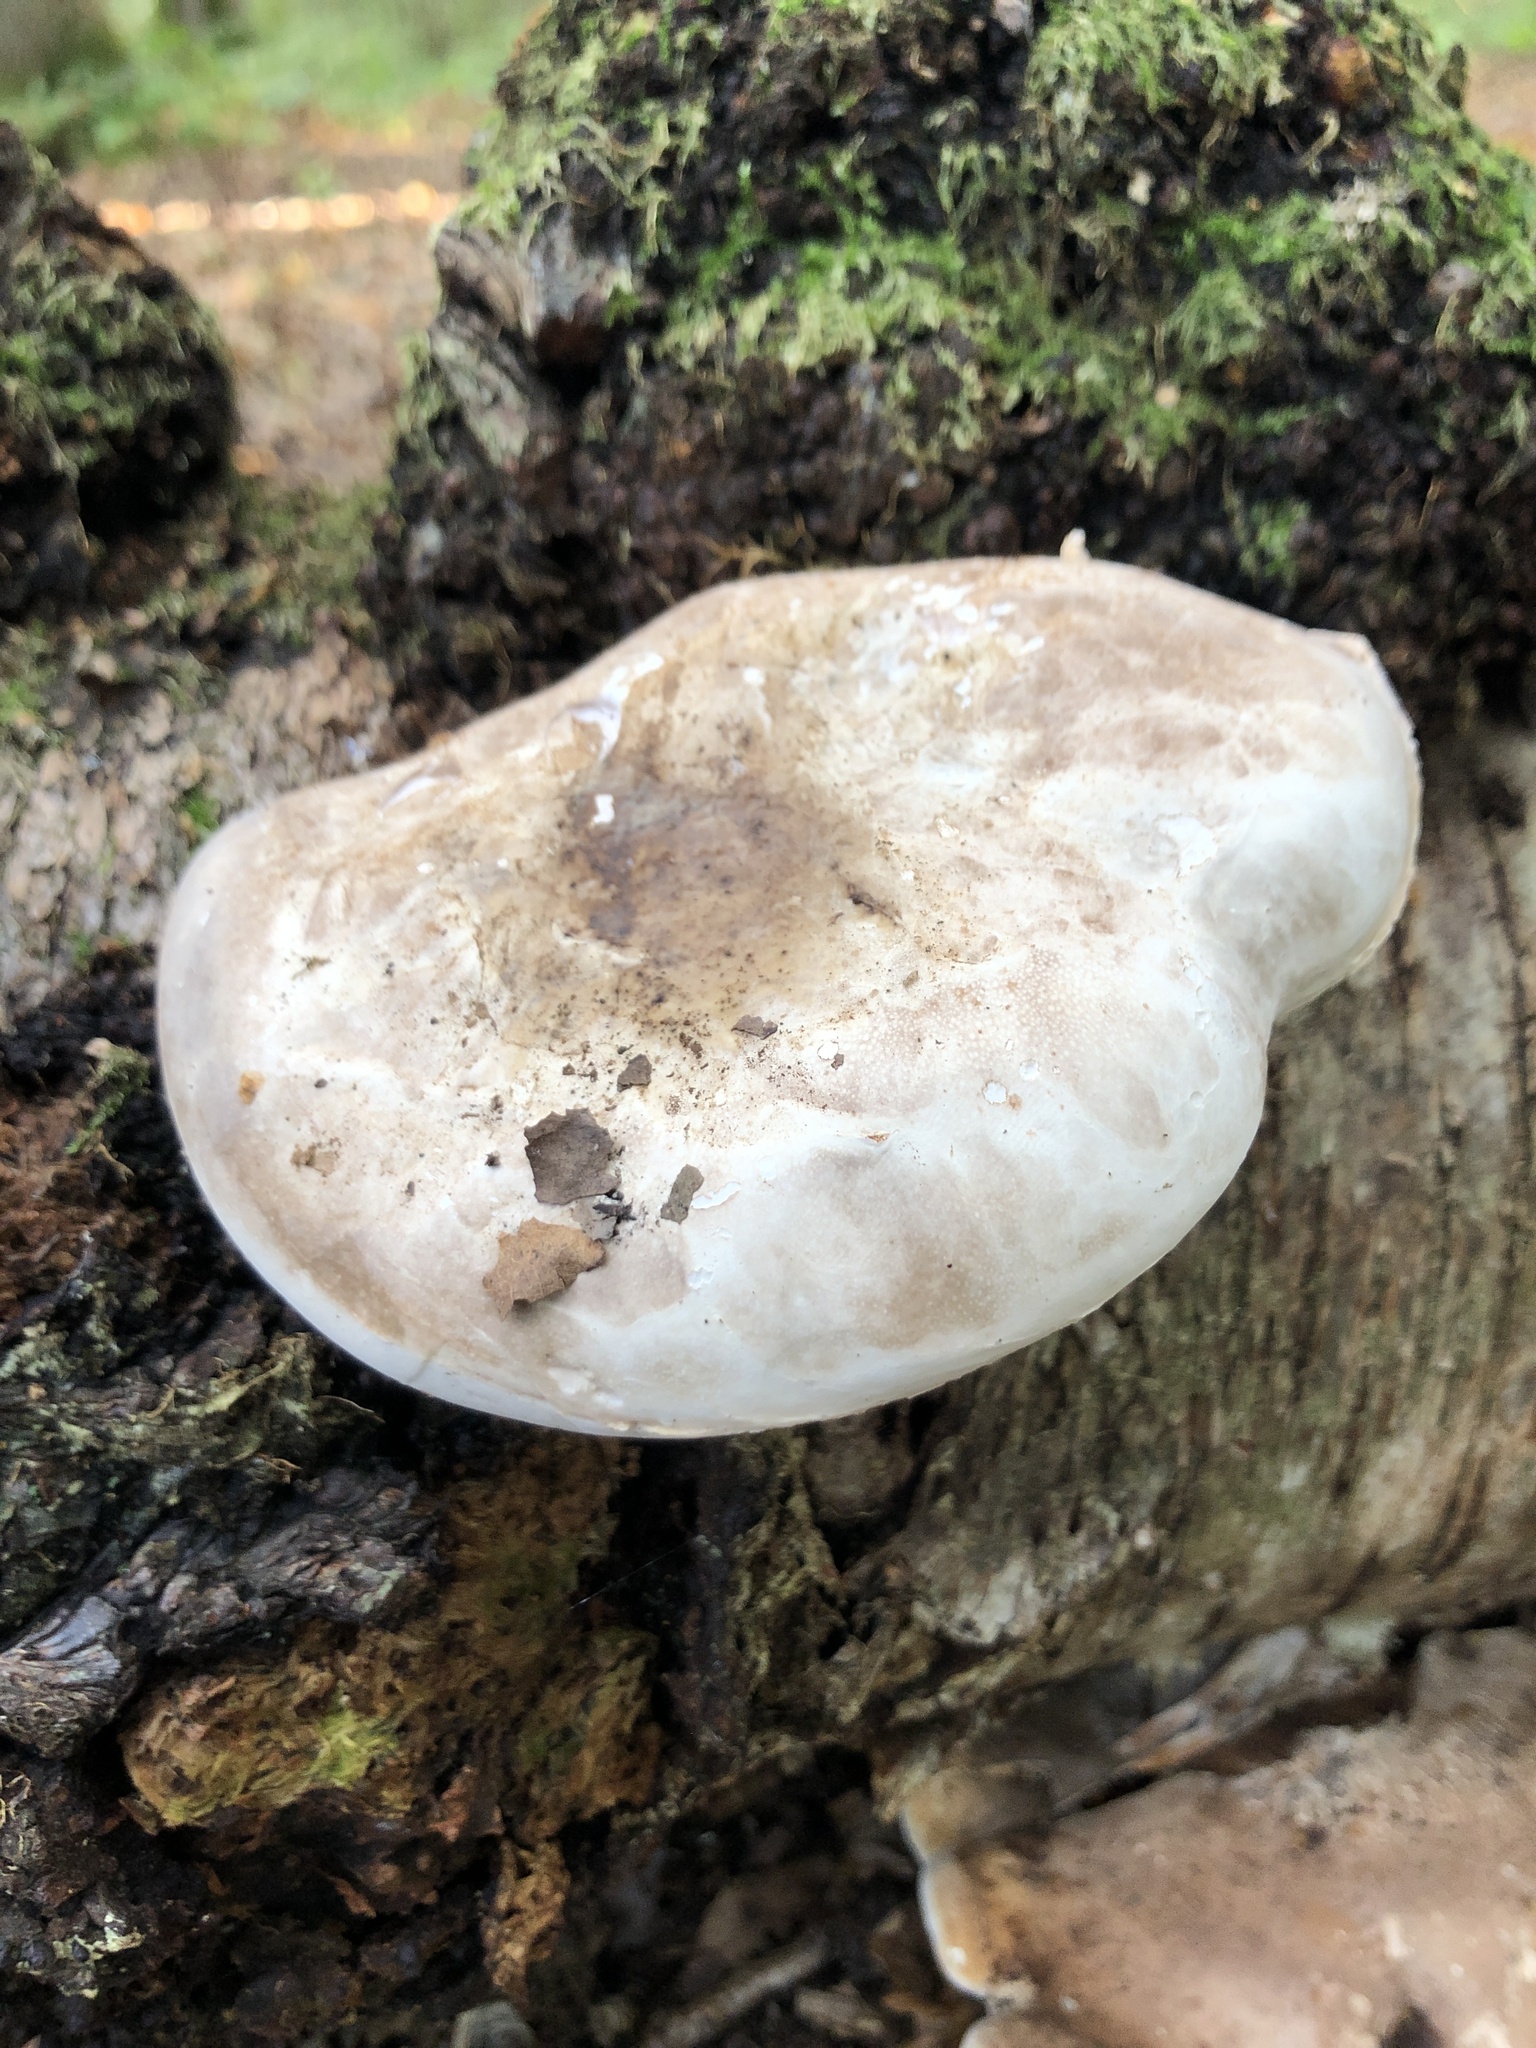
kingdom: Fungi
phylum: Basidiomycota
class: Agaricomycetes
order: Polyporales
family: Fomitopsidaceae
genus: Fomitopsis
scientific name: Fomitopsis betulina
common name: Birch polypore
